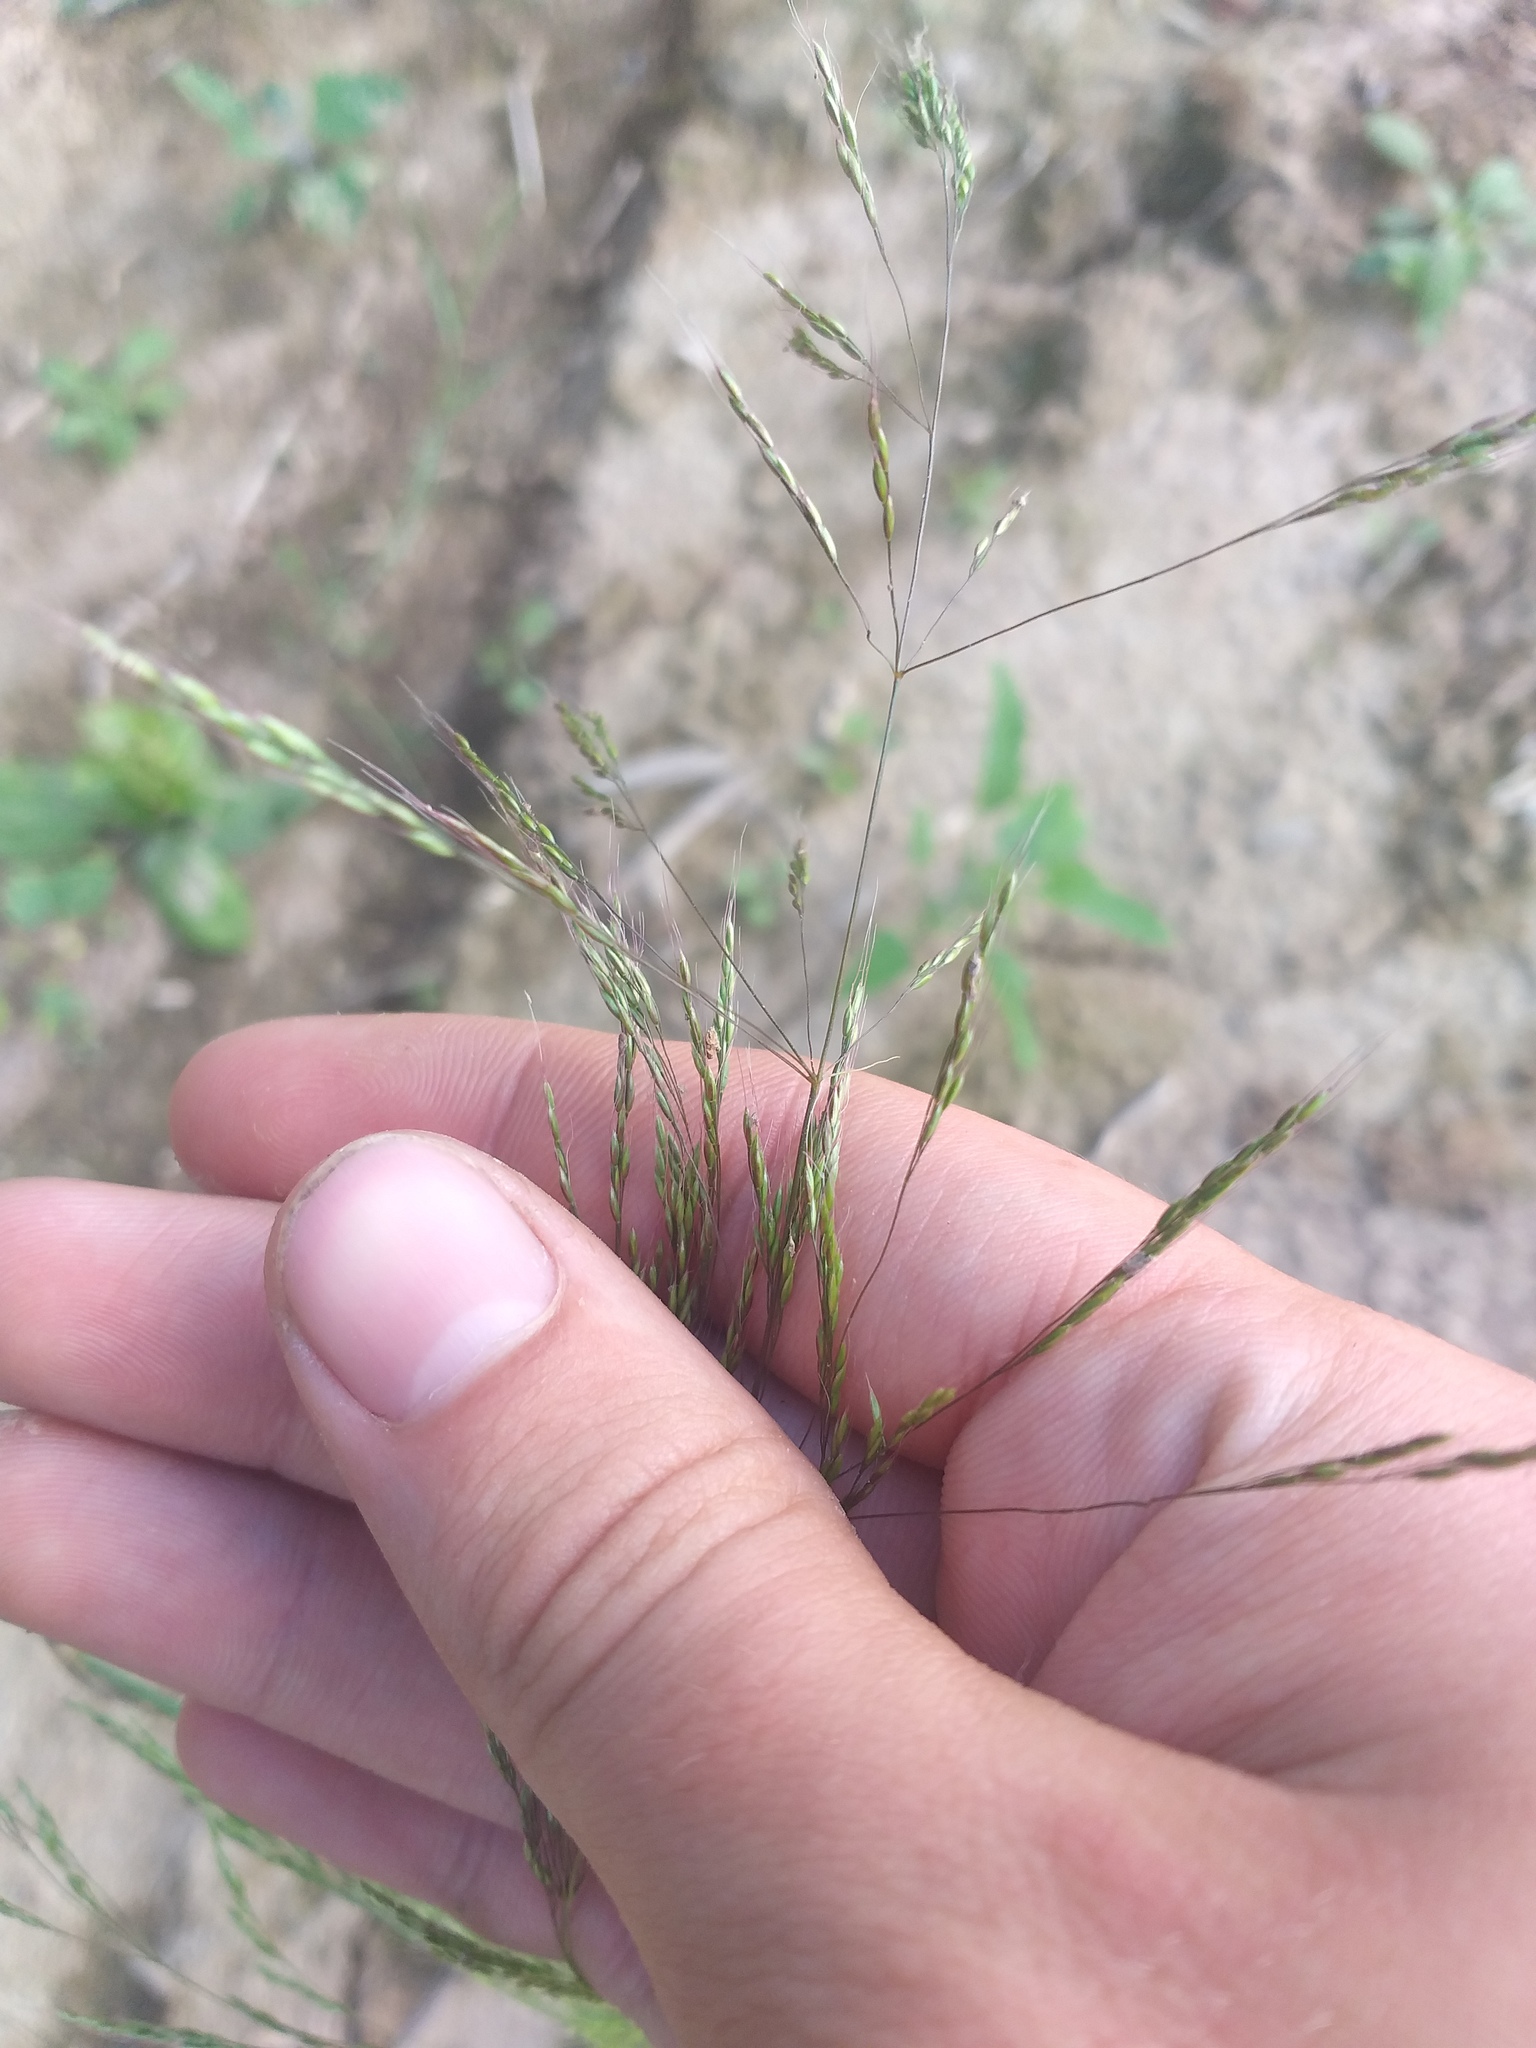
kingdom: Plantae
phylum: Tracheophyta
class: Liliopsida
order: Poales
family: Poaceae
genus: Apera
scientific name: Apera spica-venti
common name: Loose silky-bent
